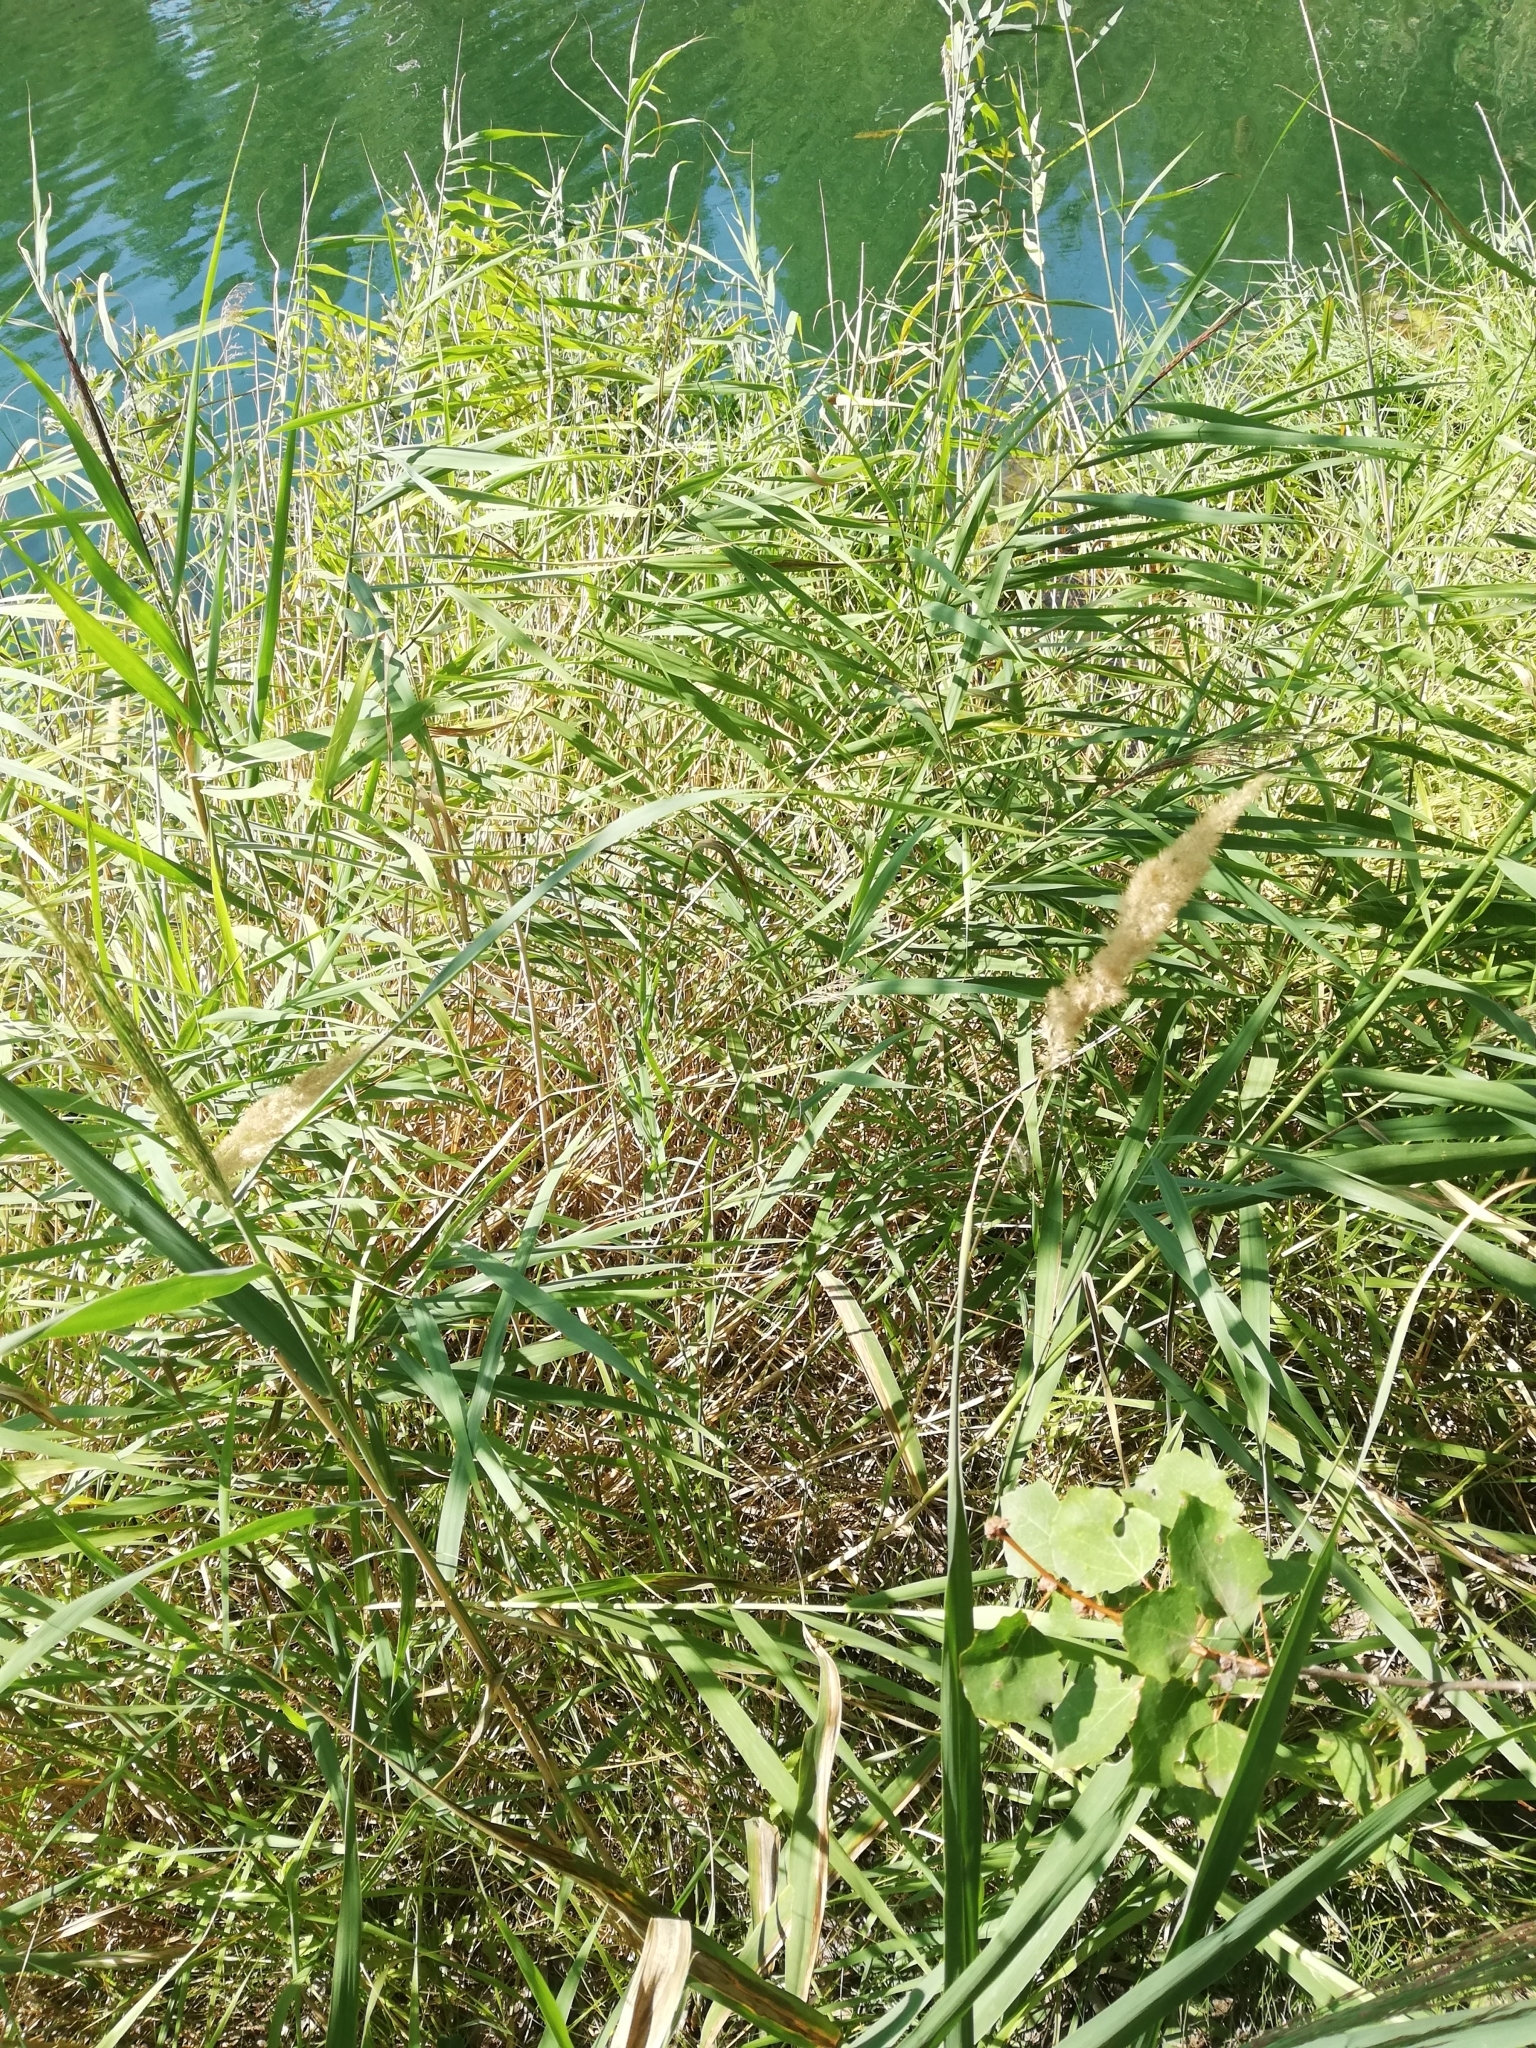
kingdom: Plantae
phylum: Tracheophyta
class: Liliopsida
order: Poales
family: Poaceae
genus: Phragmites
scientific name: Phragmites australis
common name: Common reed
